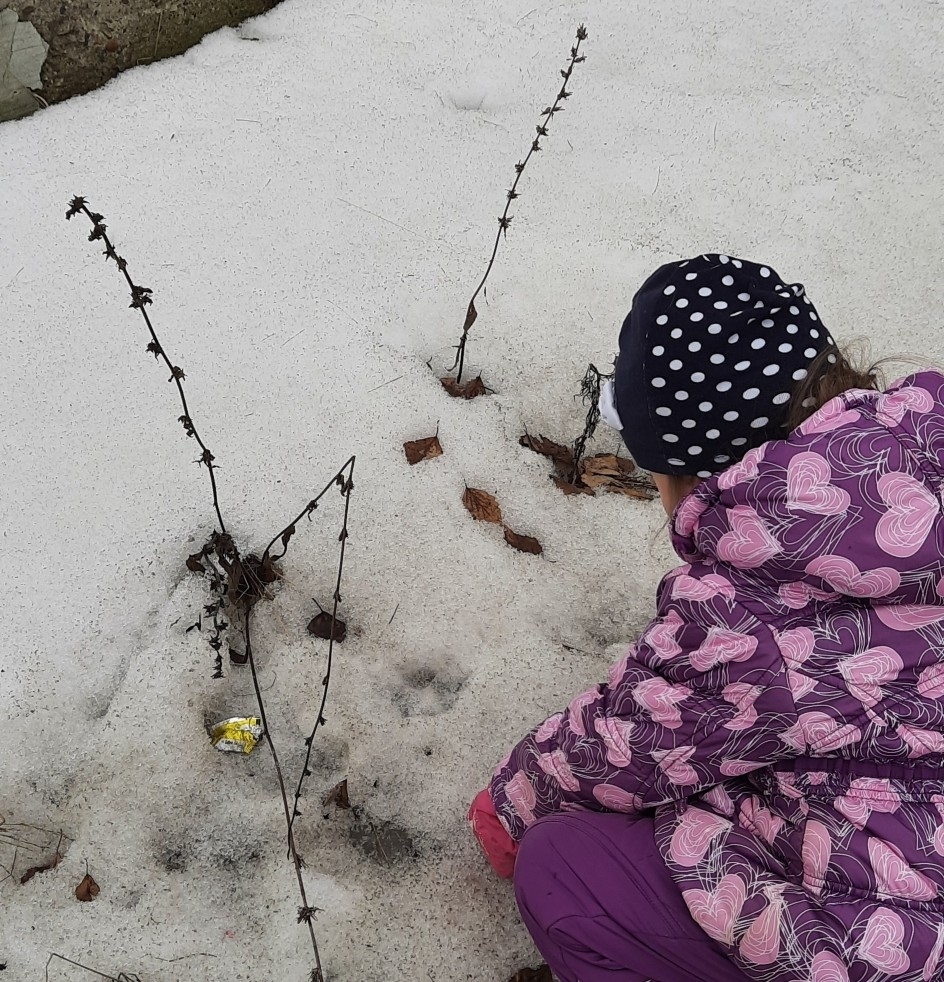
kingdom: Plantae
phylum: Tracheophyta
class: Magnoliopsida
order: Asterales
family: Asteraceae
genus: Cichorium
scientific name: Cichorium intybus
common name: Chicory
